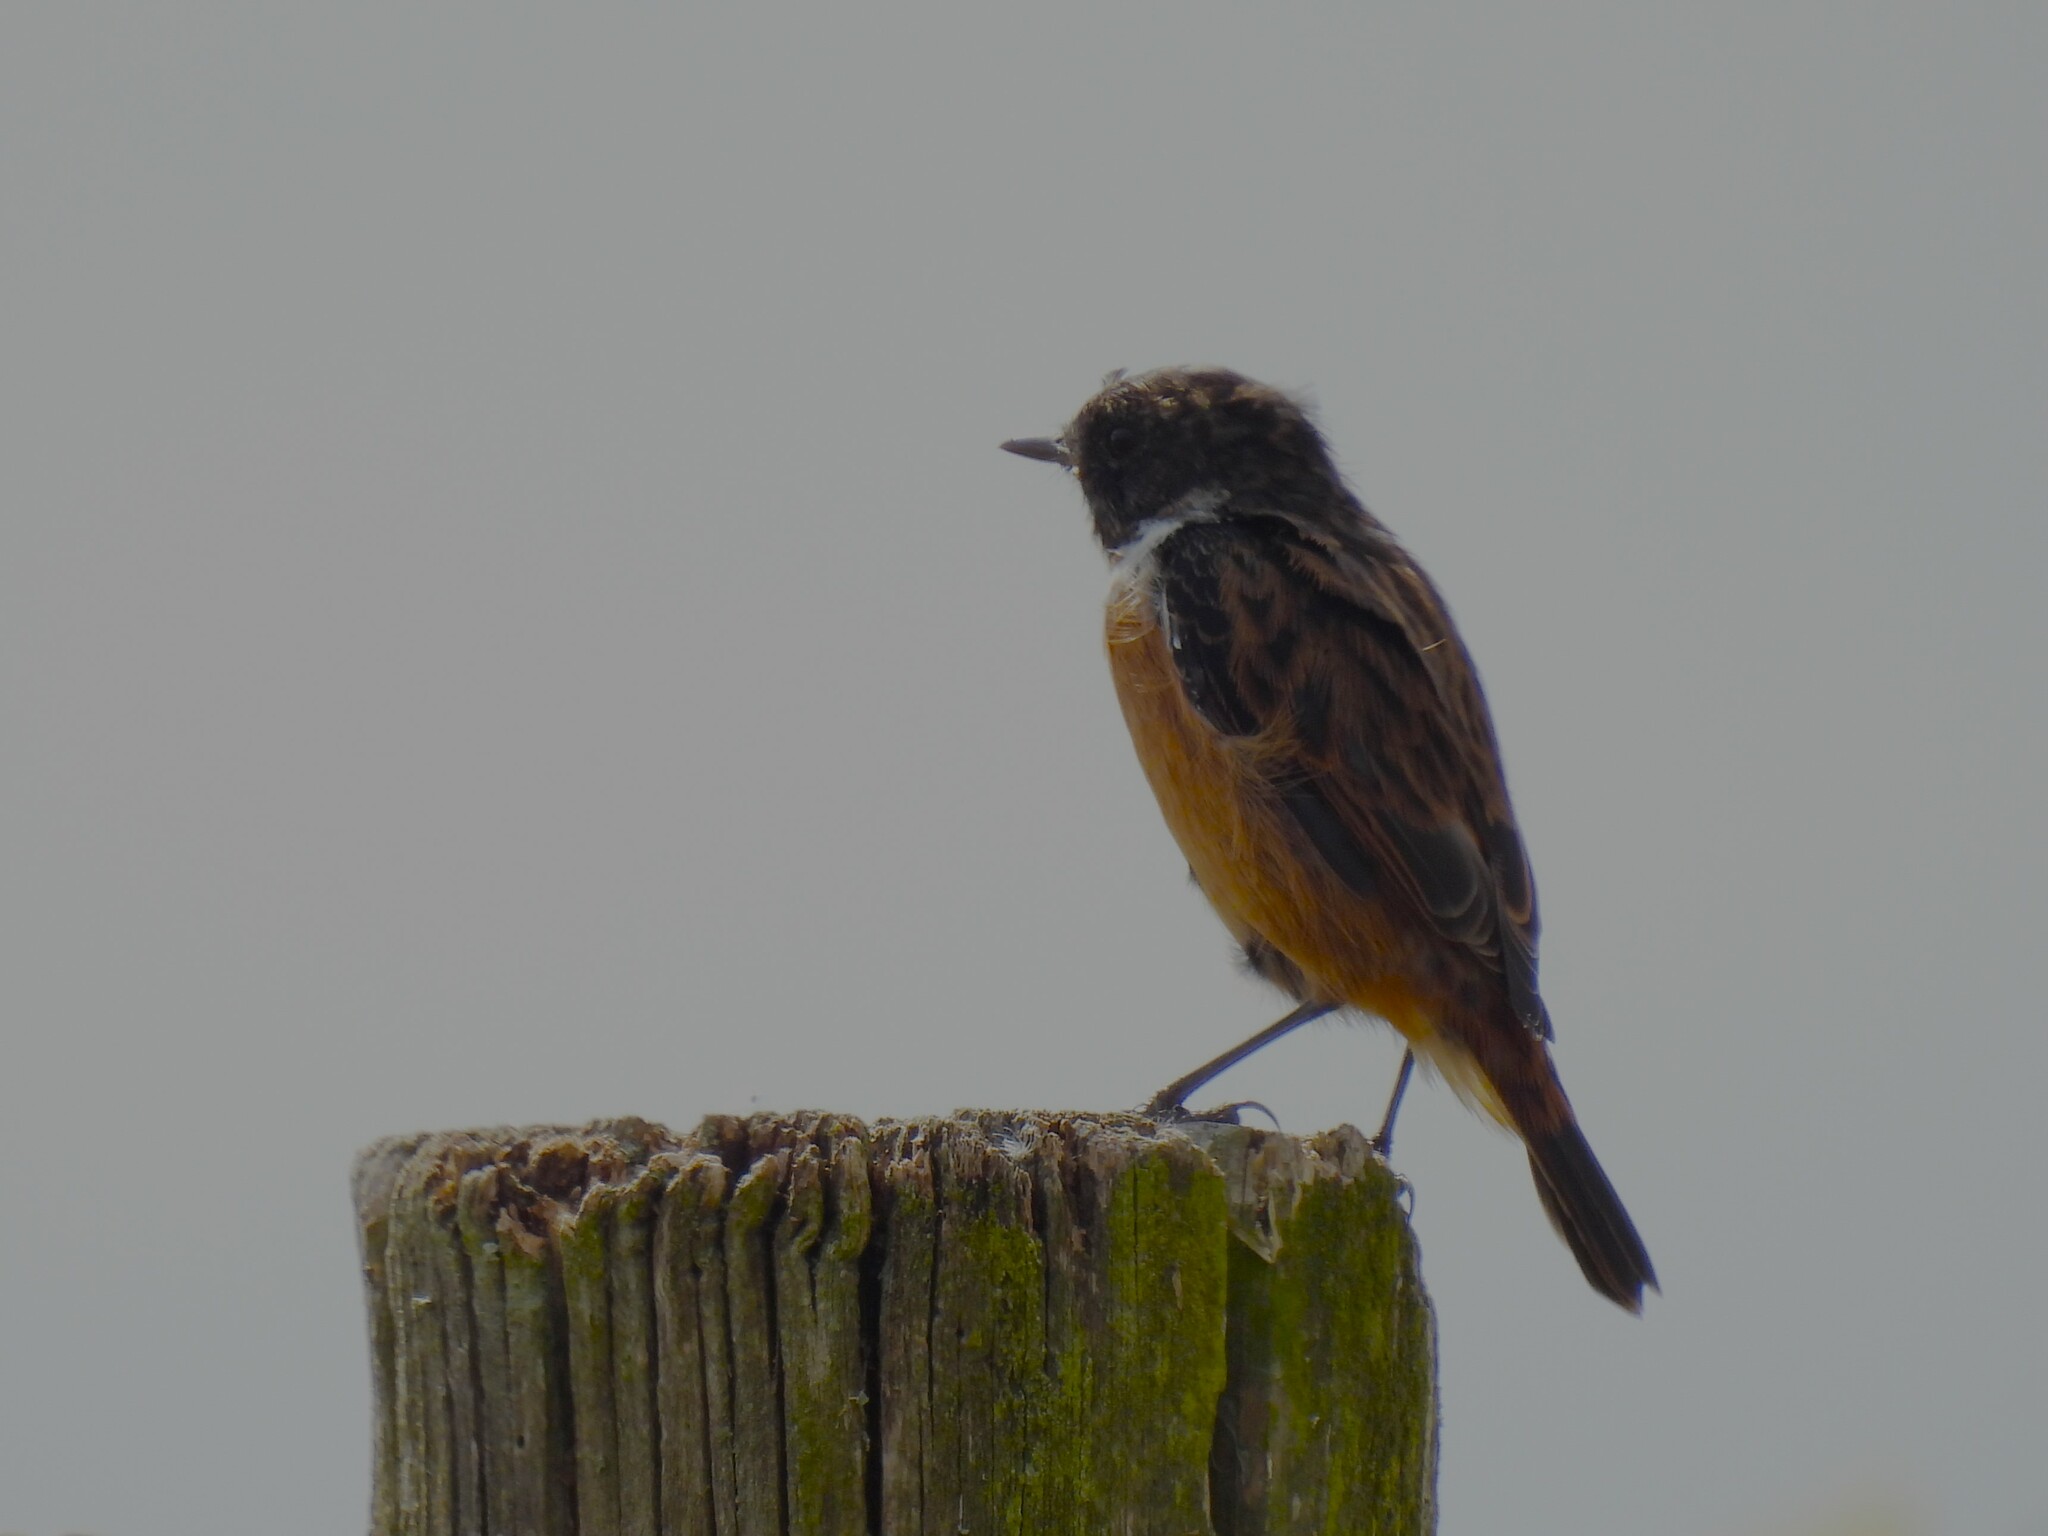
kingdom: Animalia
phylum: Chordata
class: Aves
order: Passeriformes
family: Muscicapidae
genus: Saxicola
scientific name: Saxicola rubicola
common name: European stonechat
